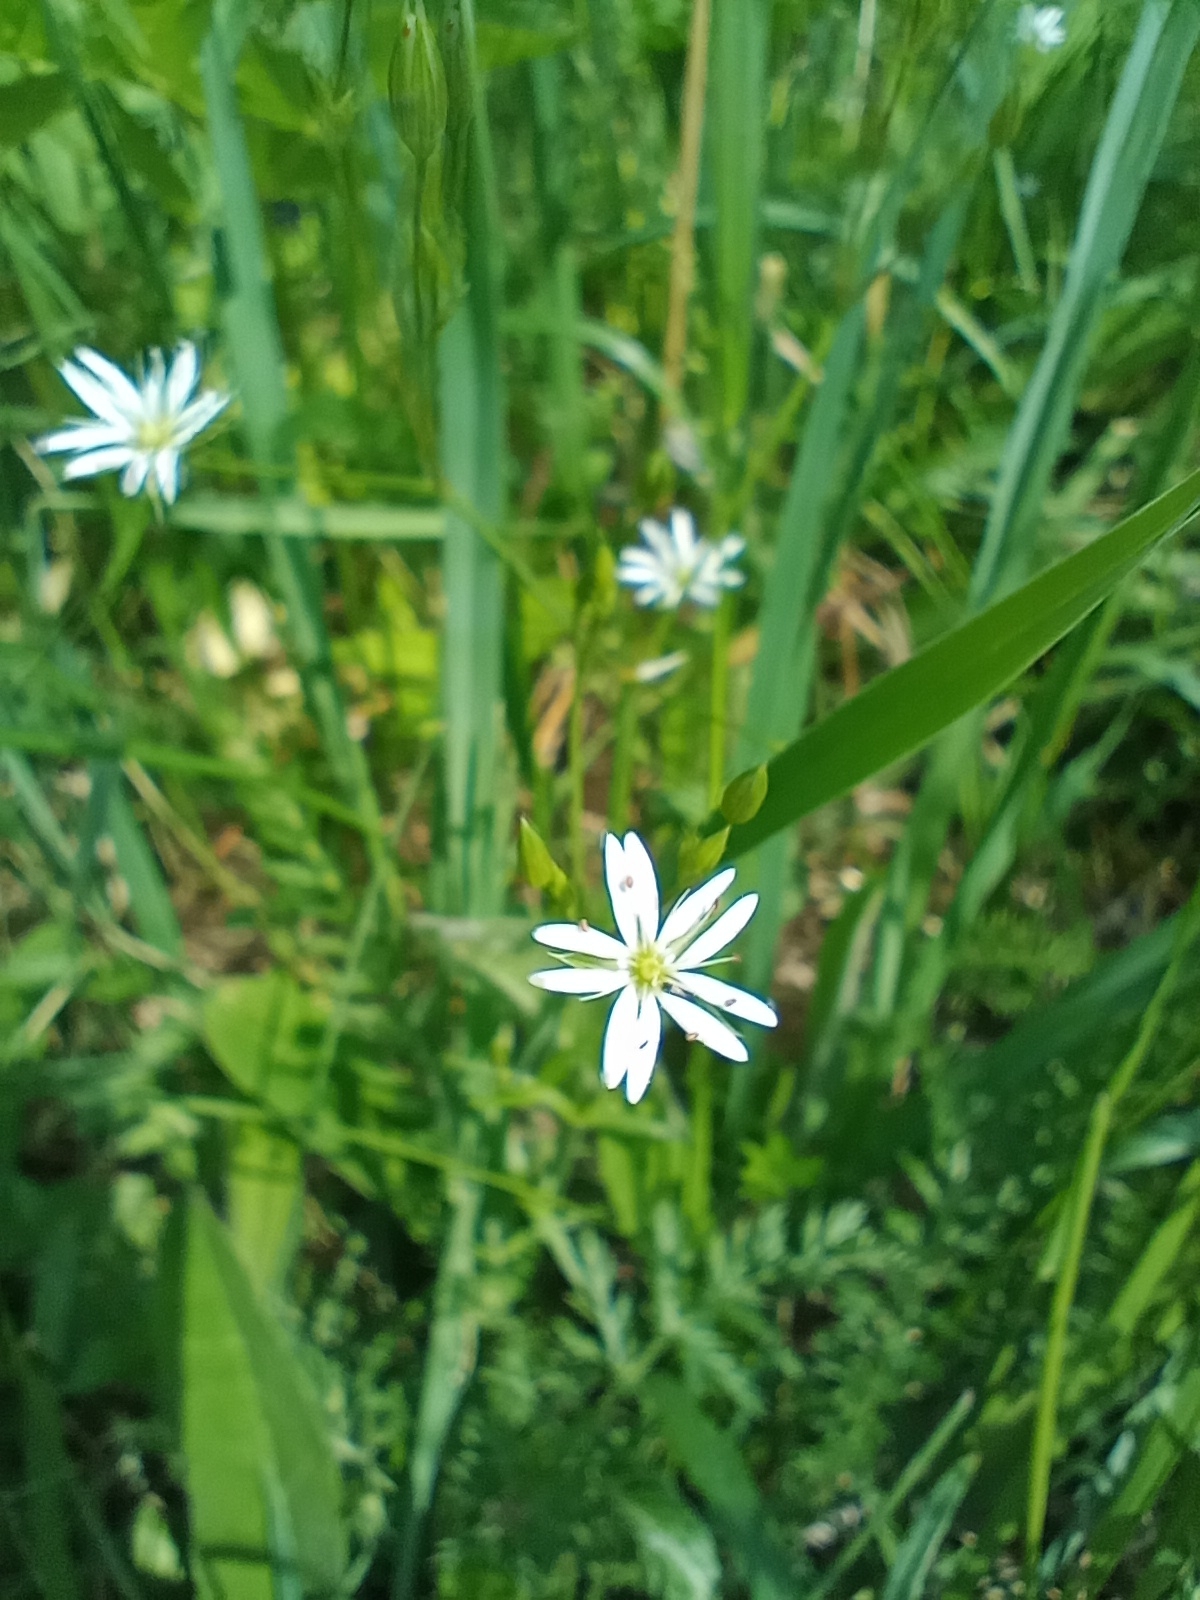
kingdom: Plantae
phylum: Tracheophyta
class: Magnoliopsida
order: Caryophyllales
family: Caryophyllaceae
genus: Stellaria
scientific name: Stellaria graminea
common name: Grass-like starwort
